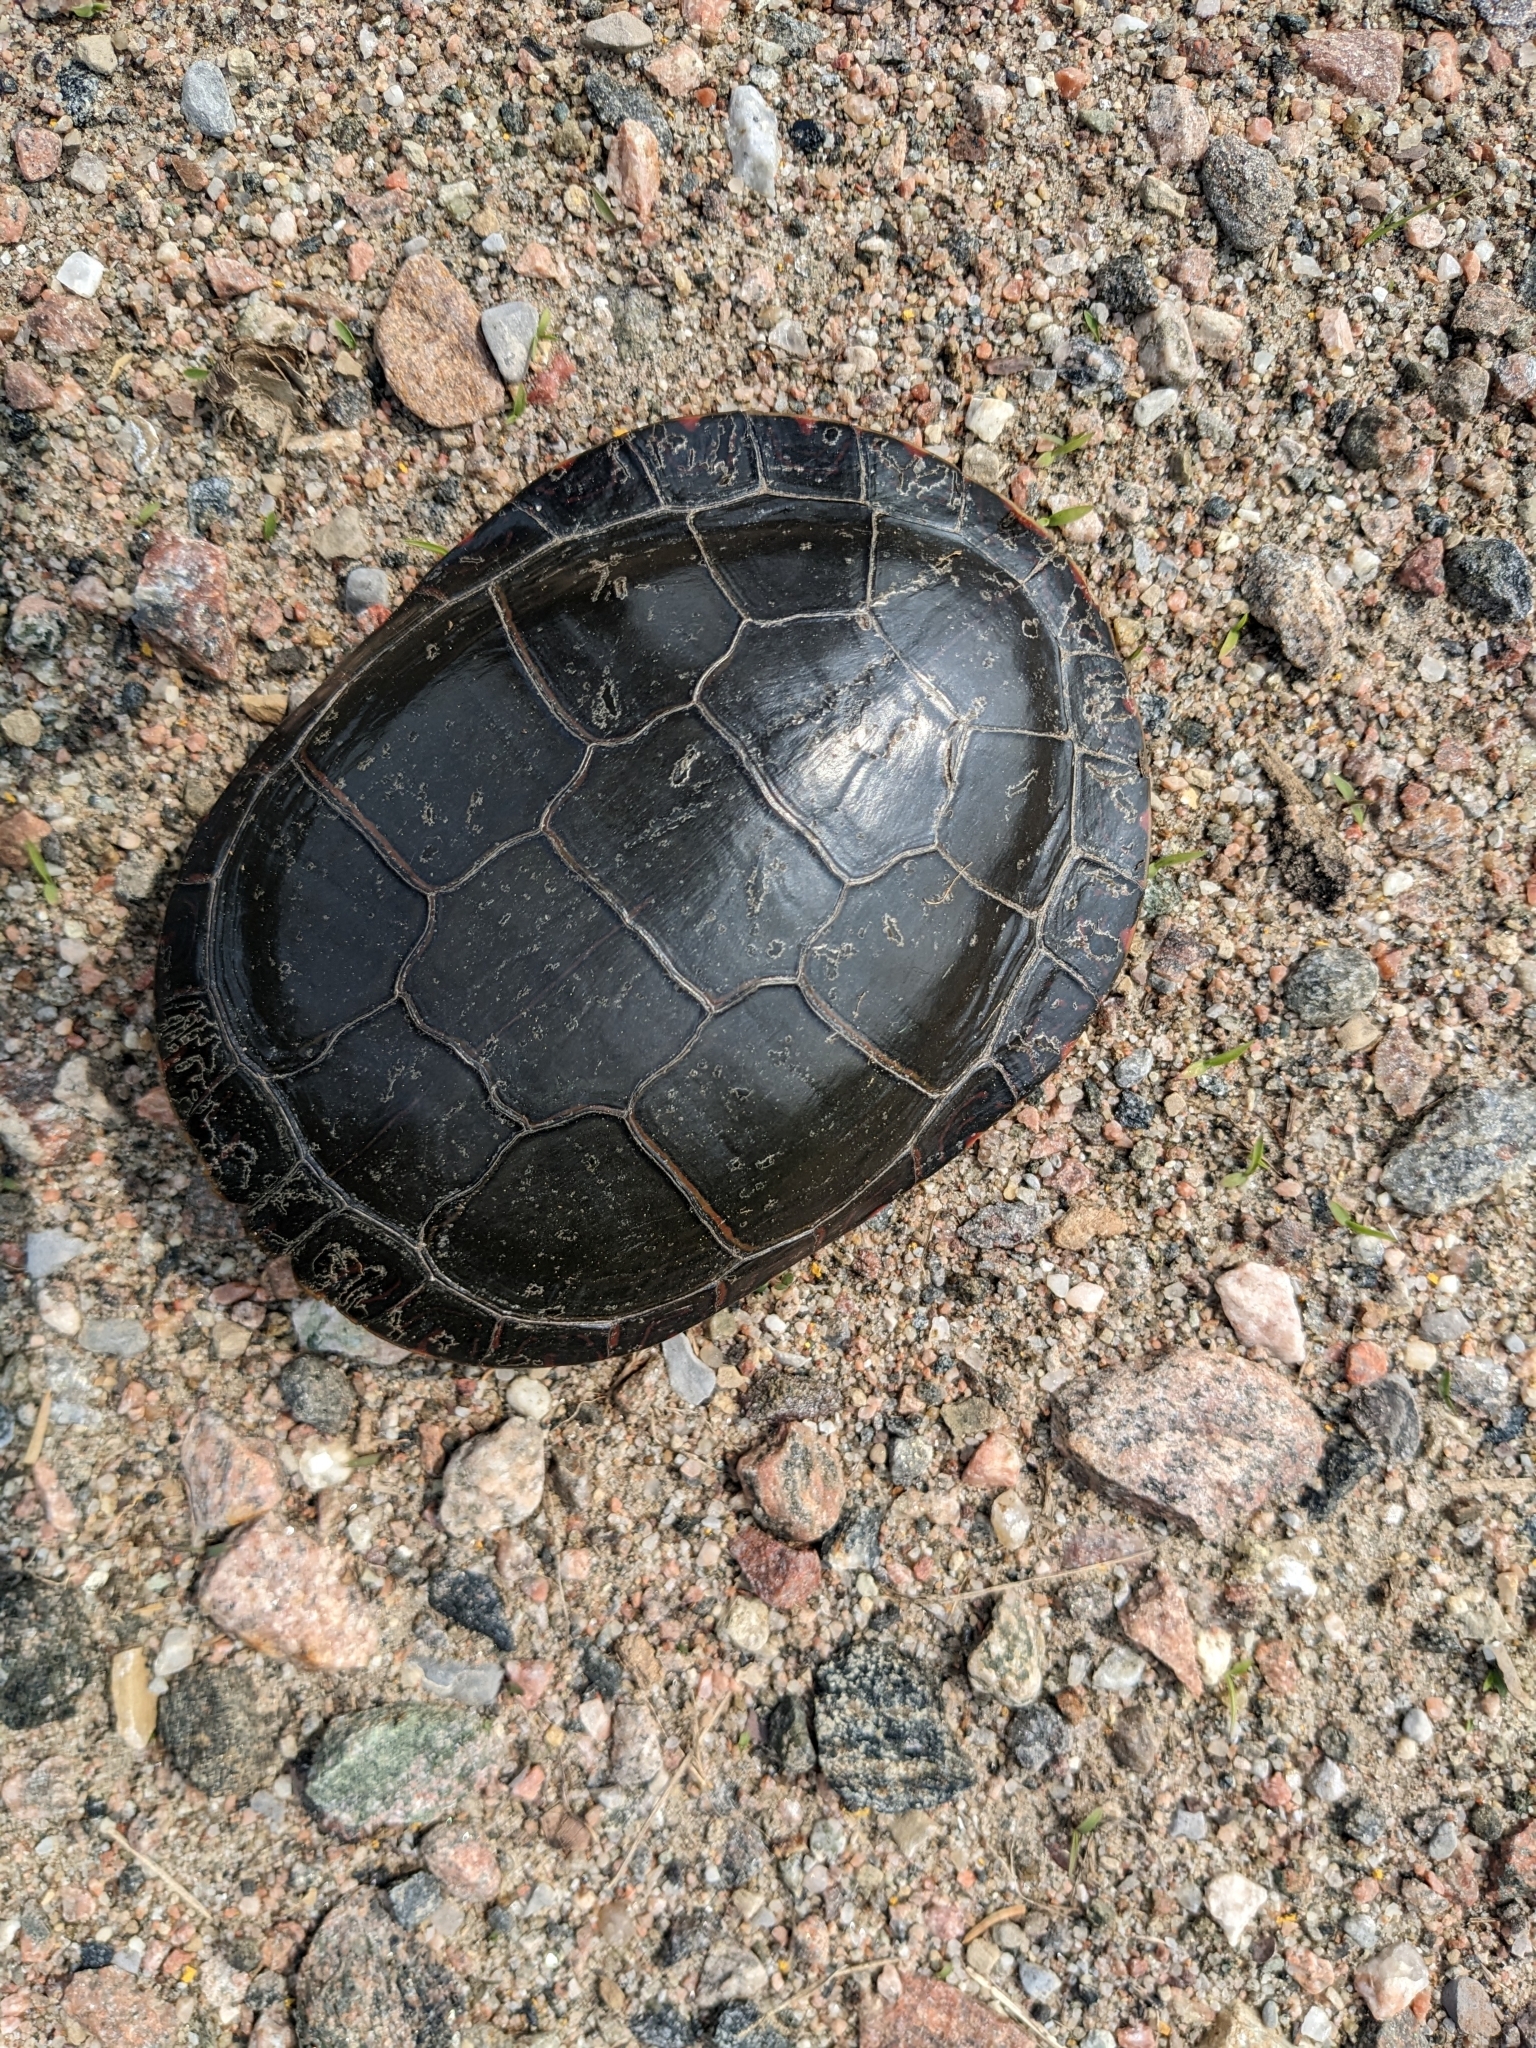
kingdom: Animalia
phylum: Chordata
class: Testudines
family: Emydidae
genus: Chrysemys
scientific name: Chrysemys picta
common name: Painted turtle
